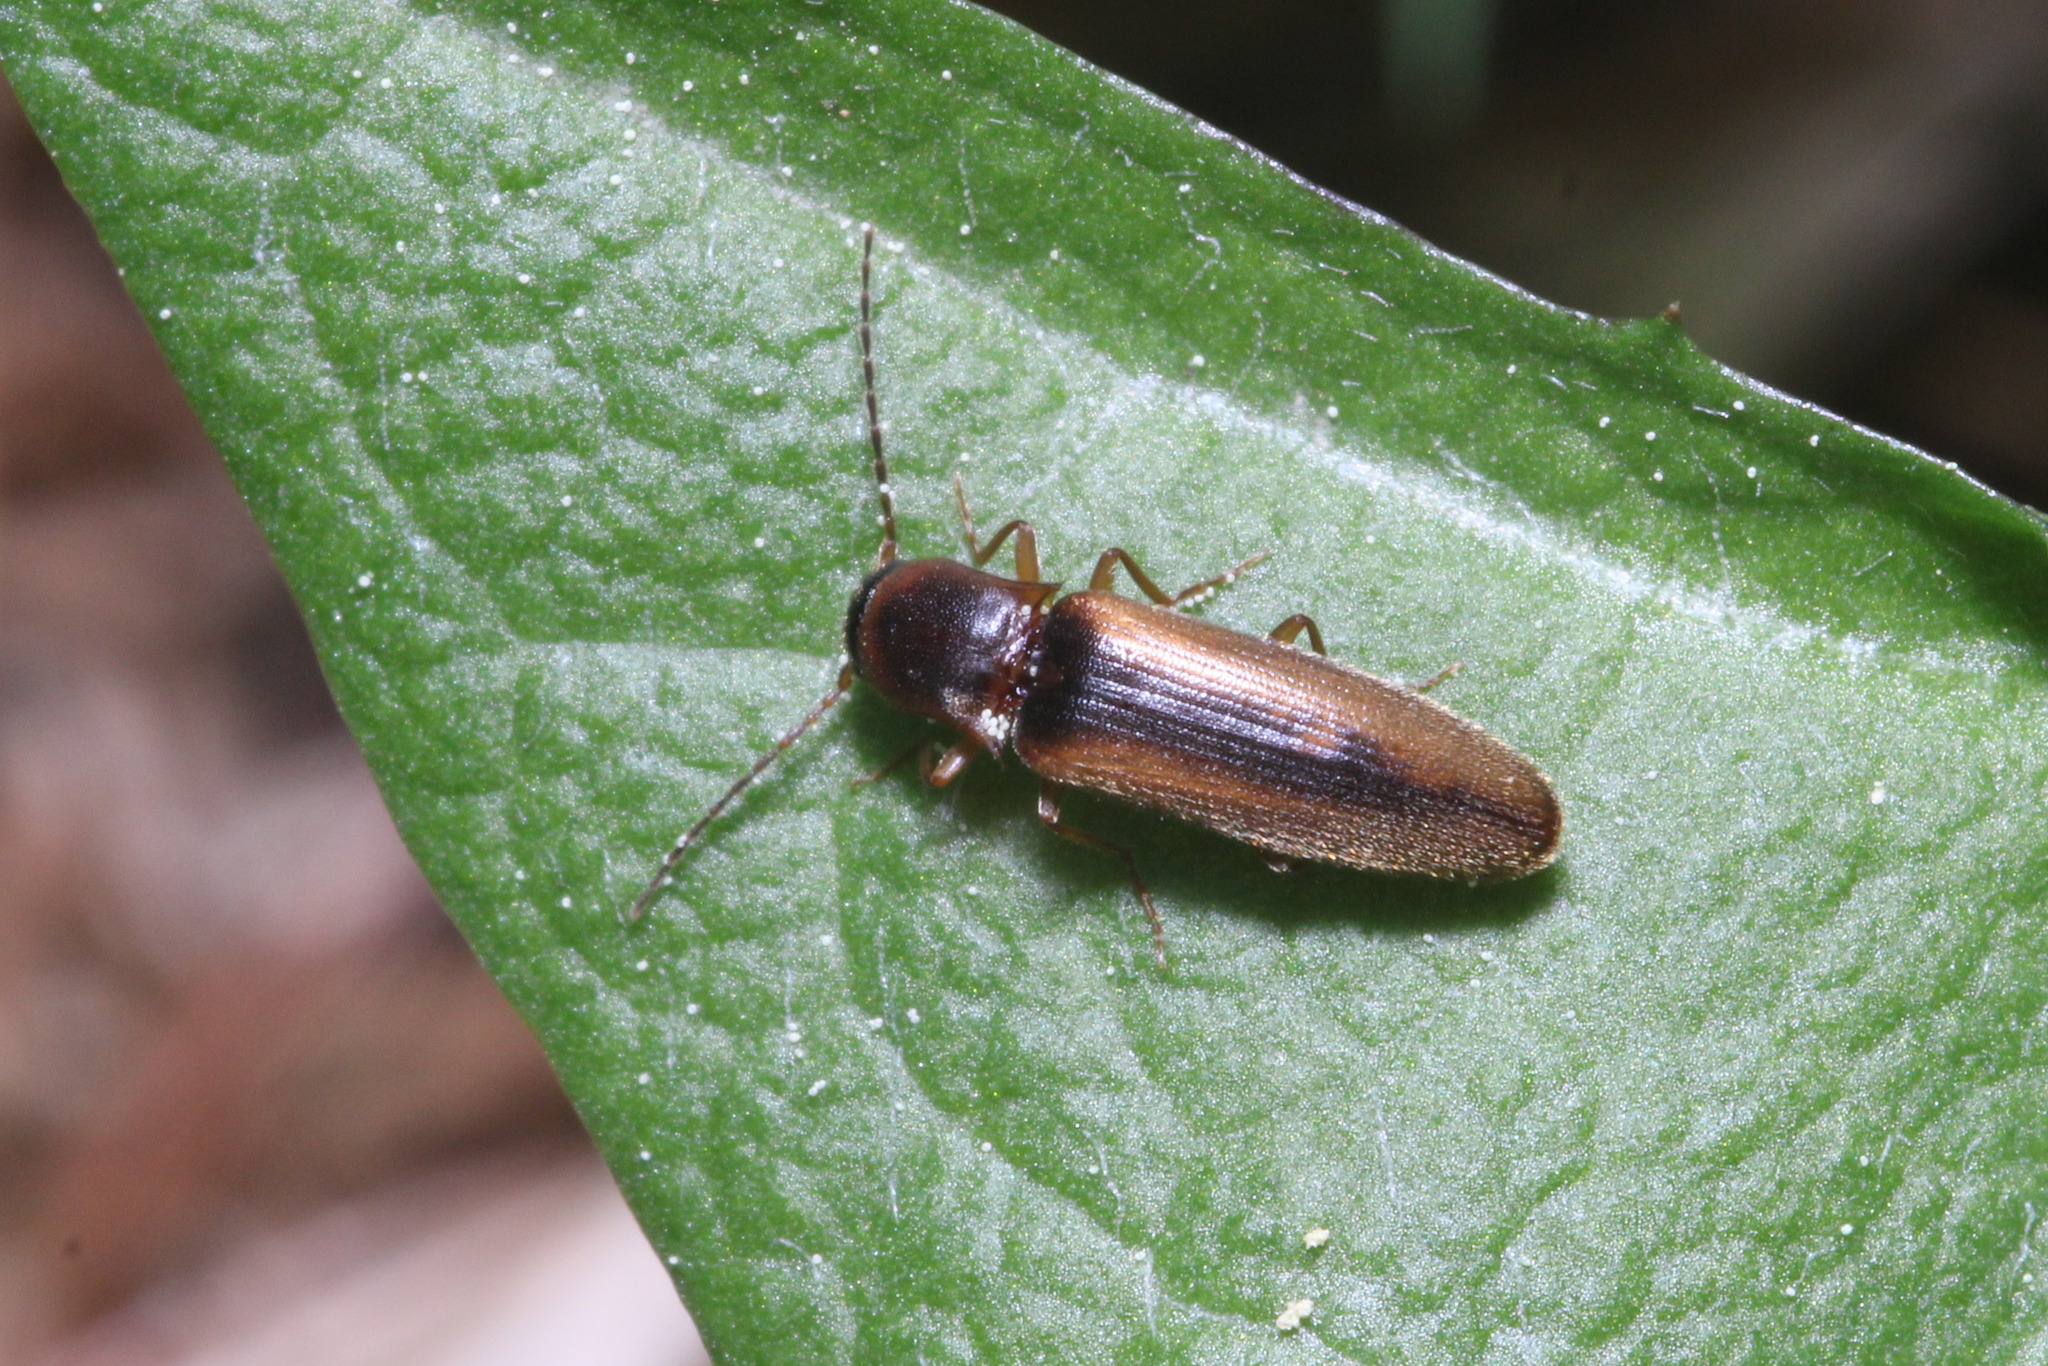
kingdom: Animalia
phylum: Arthropoda
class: Insecta
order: Coleoptera
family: Elateridae
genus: Dalopius
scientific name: Dalopius marginatus
